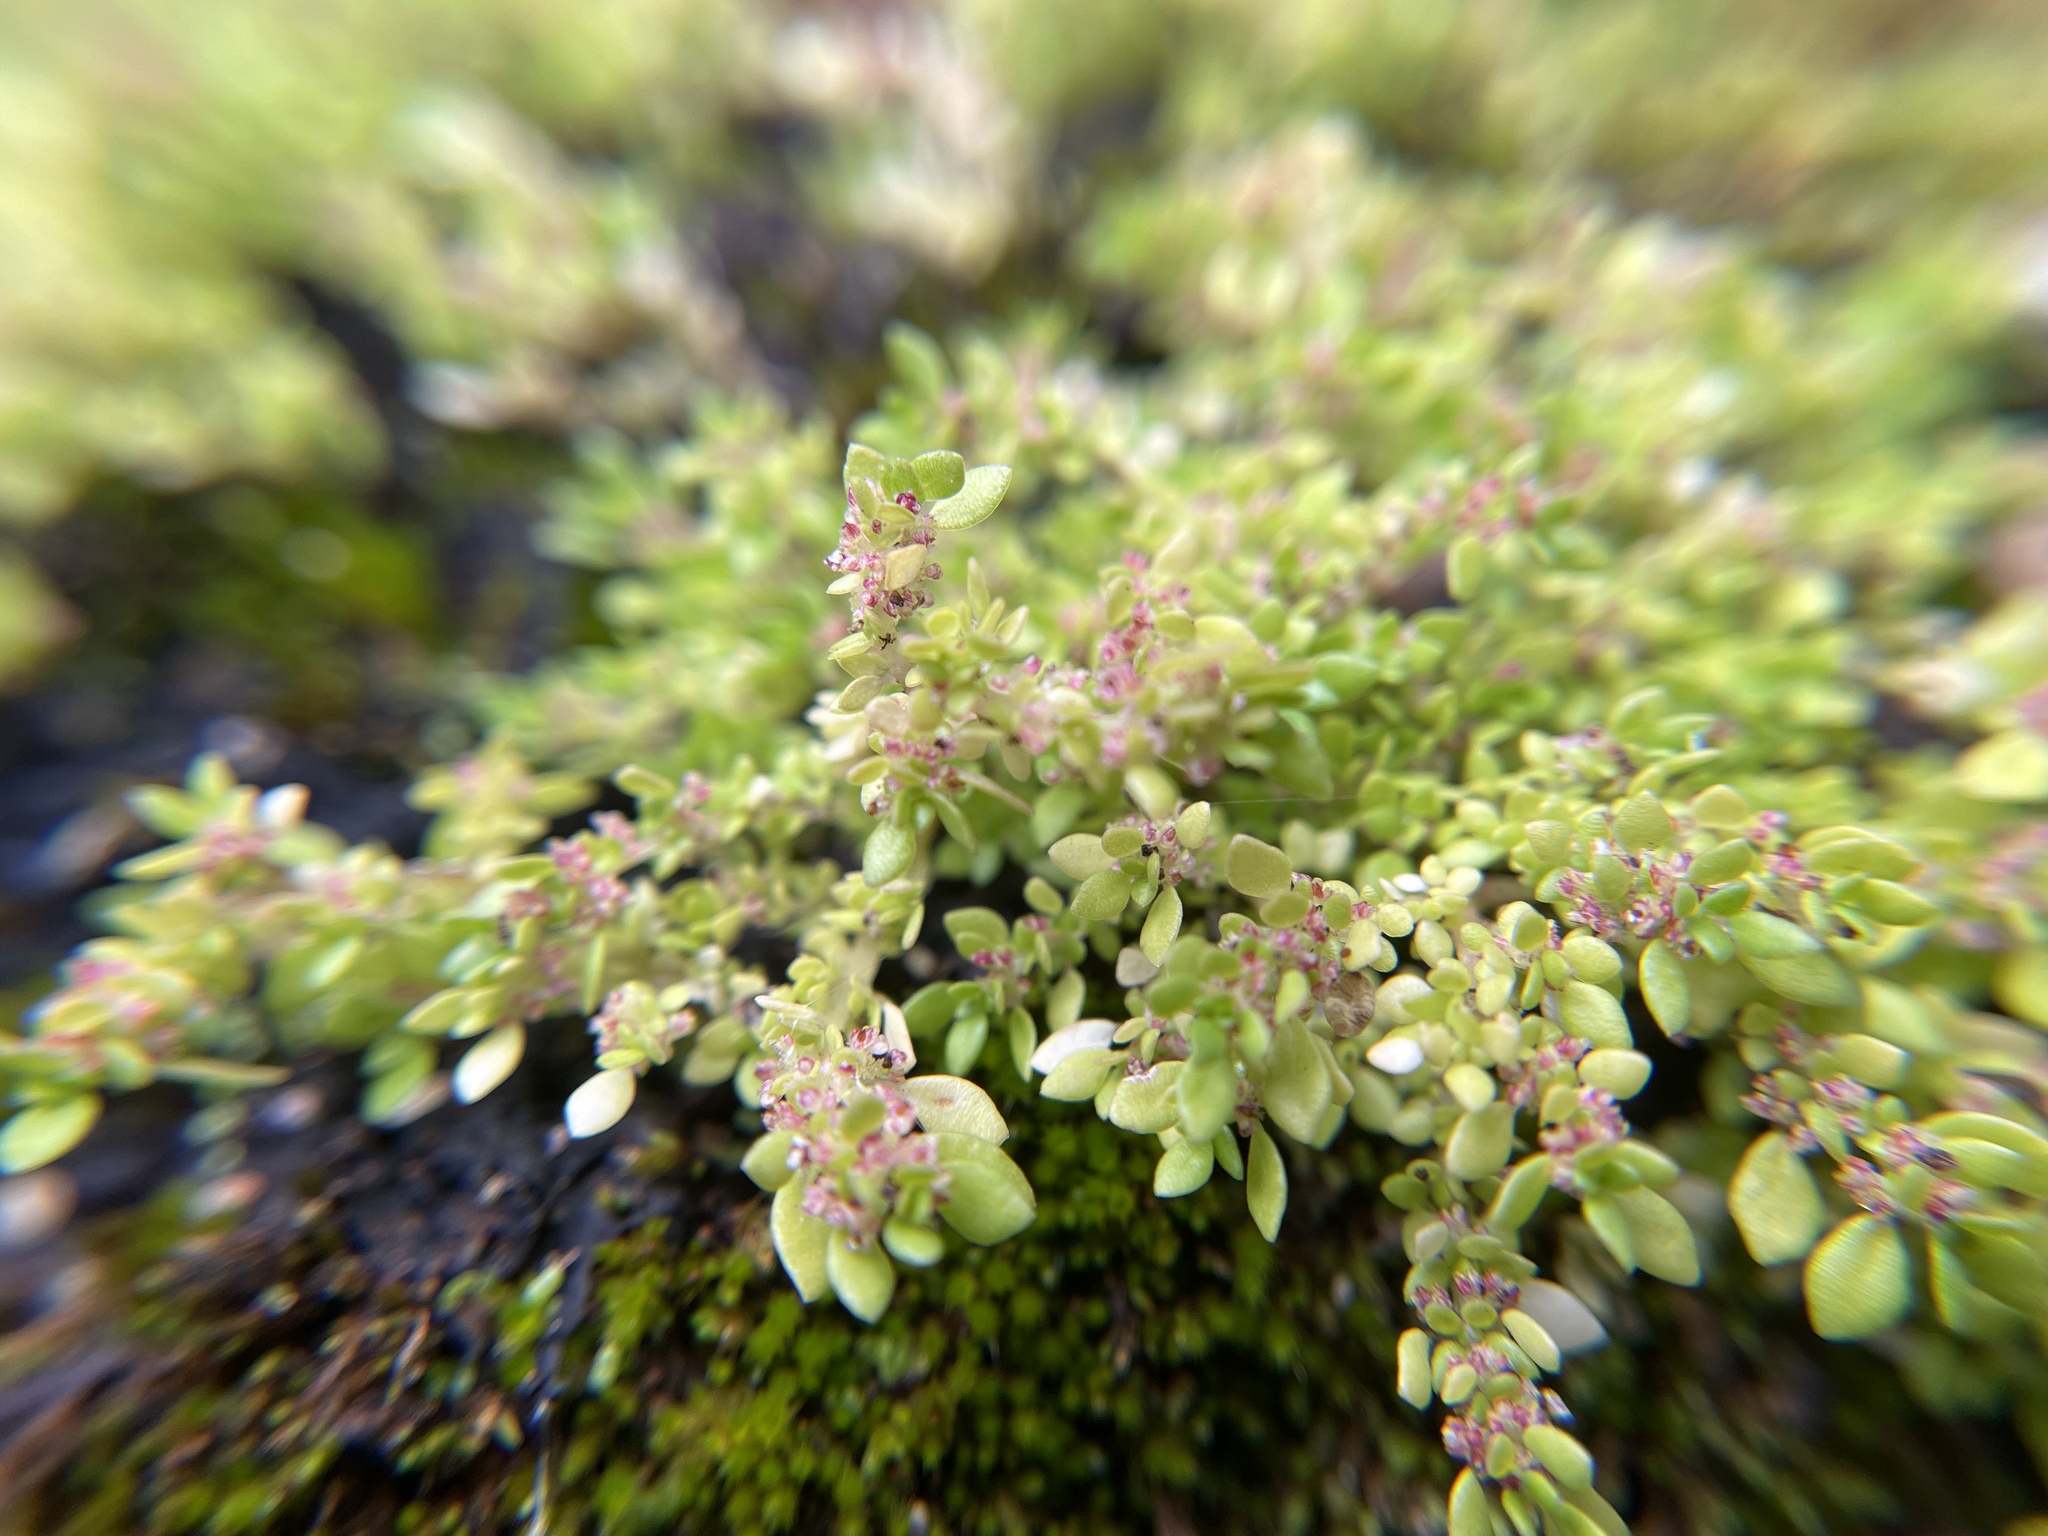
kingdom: Plantae
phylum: Tracheophyta
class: Magnoliopsida
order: Rosales
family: Urticaceae
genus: Pilea
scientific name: Pilea microphylla
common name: Artillery-plant
